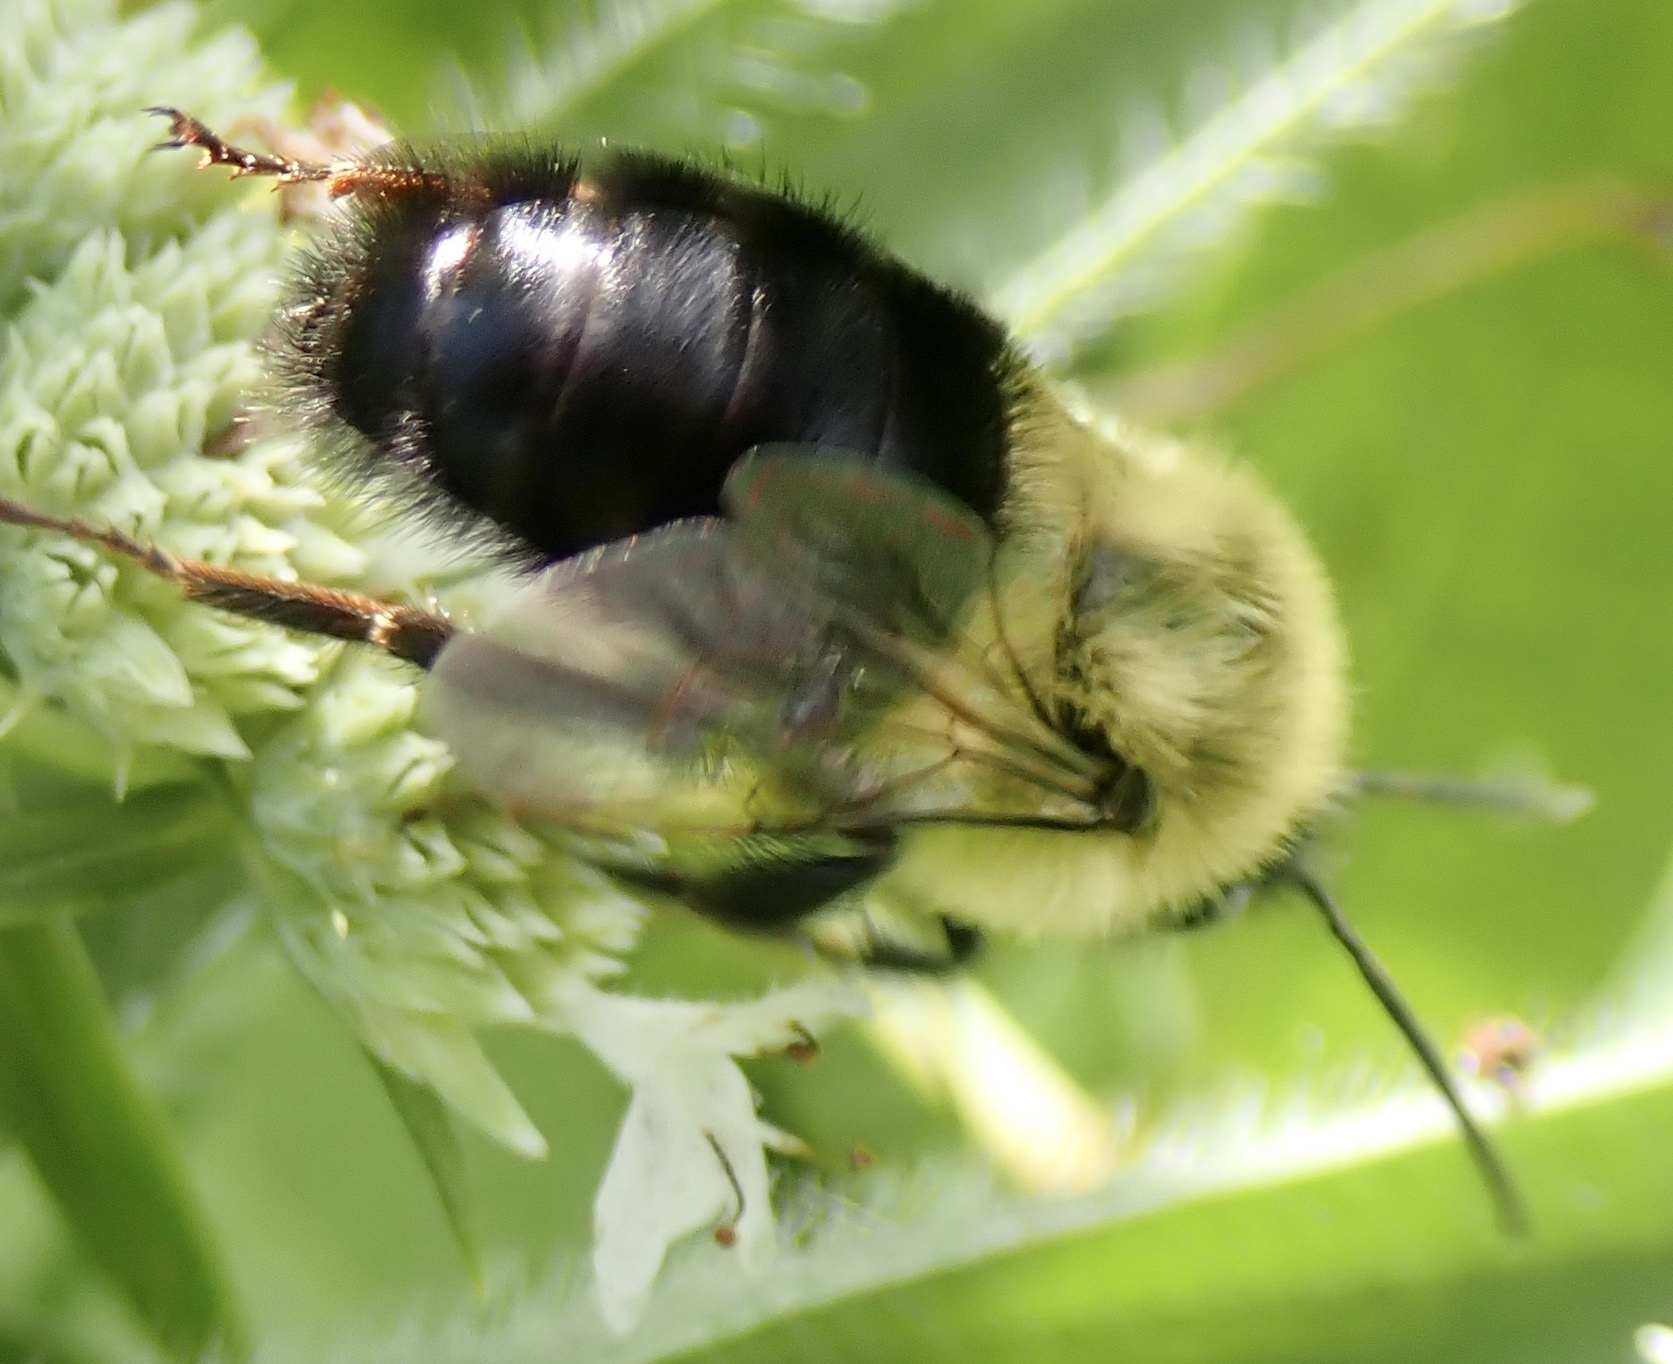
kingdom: Animalia
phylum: Arthropoda
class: Insecta
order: Hymenoptera
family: Apidae
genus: Bombus
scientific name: Bombus impatiens
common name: Common eastern bumble bee
